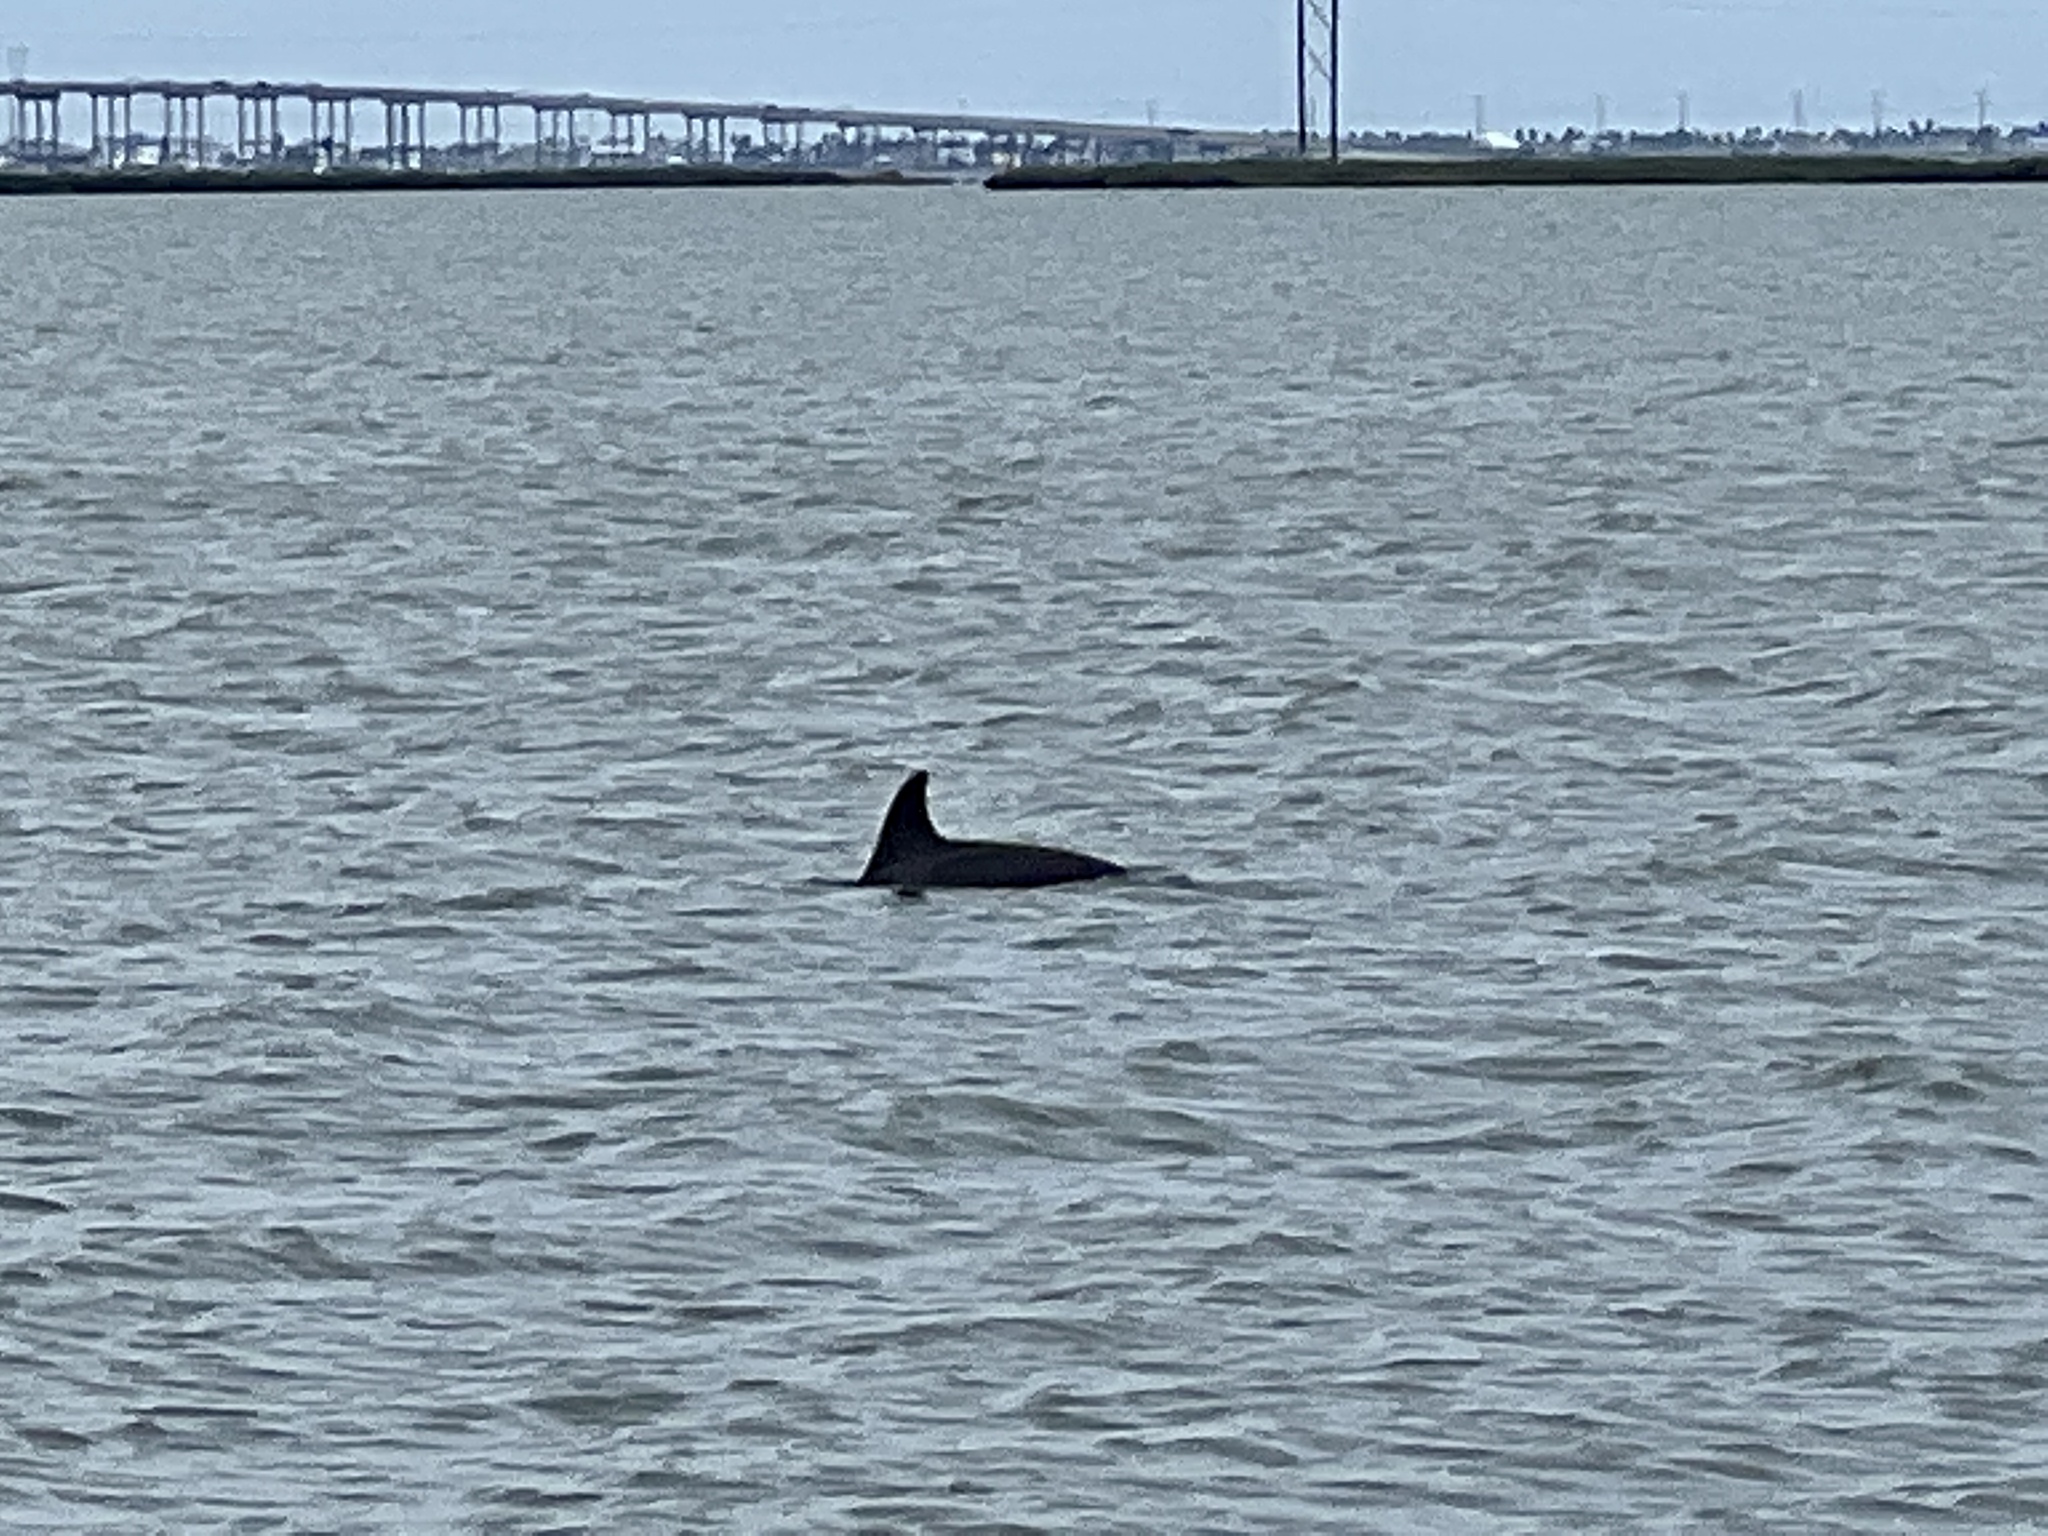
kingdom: Animalia
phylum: Chordata
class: Mammalia
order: Cetacea
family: Delphinidae
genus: Tursiops
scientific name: Tursiops truncatus
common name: Bottlenose dolphin
